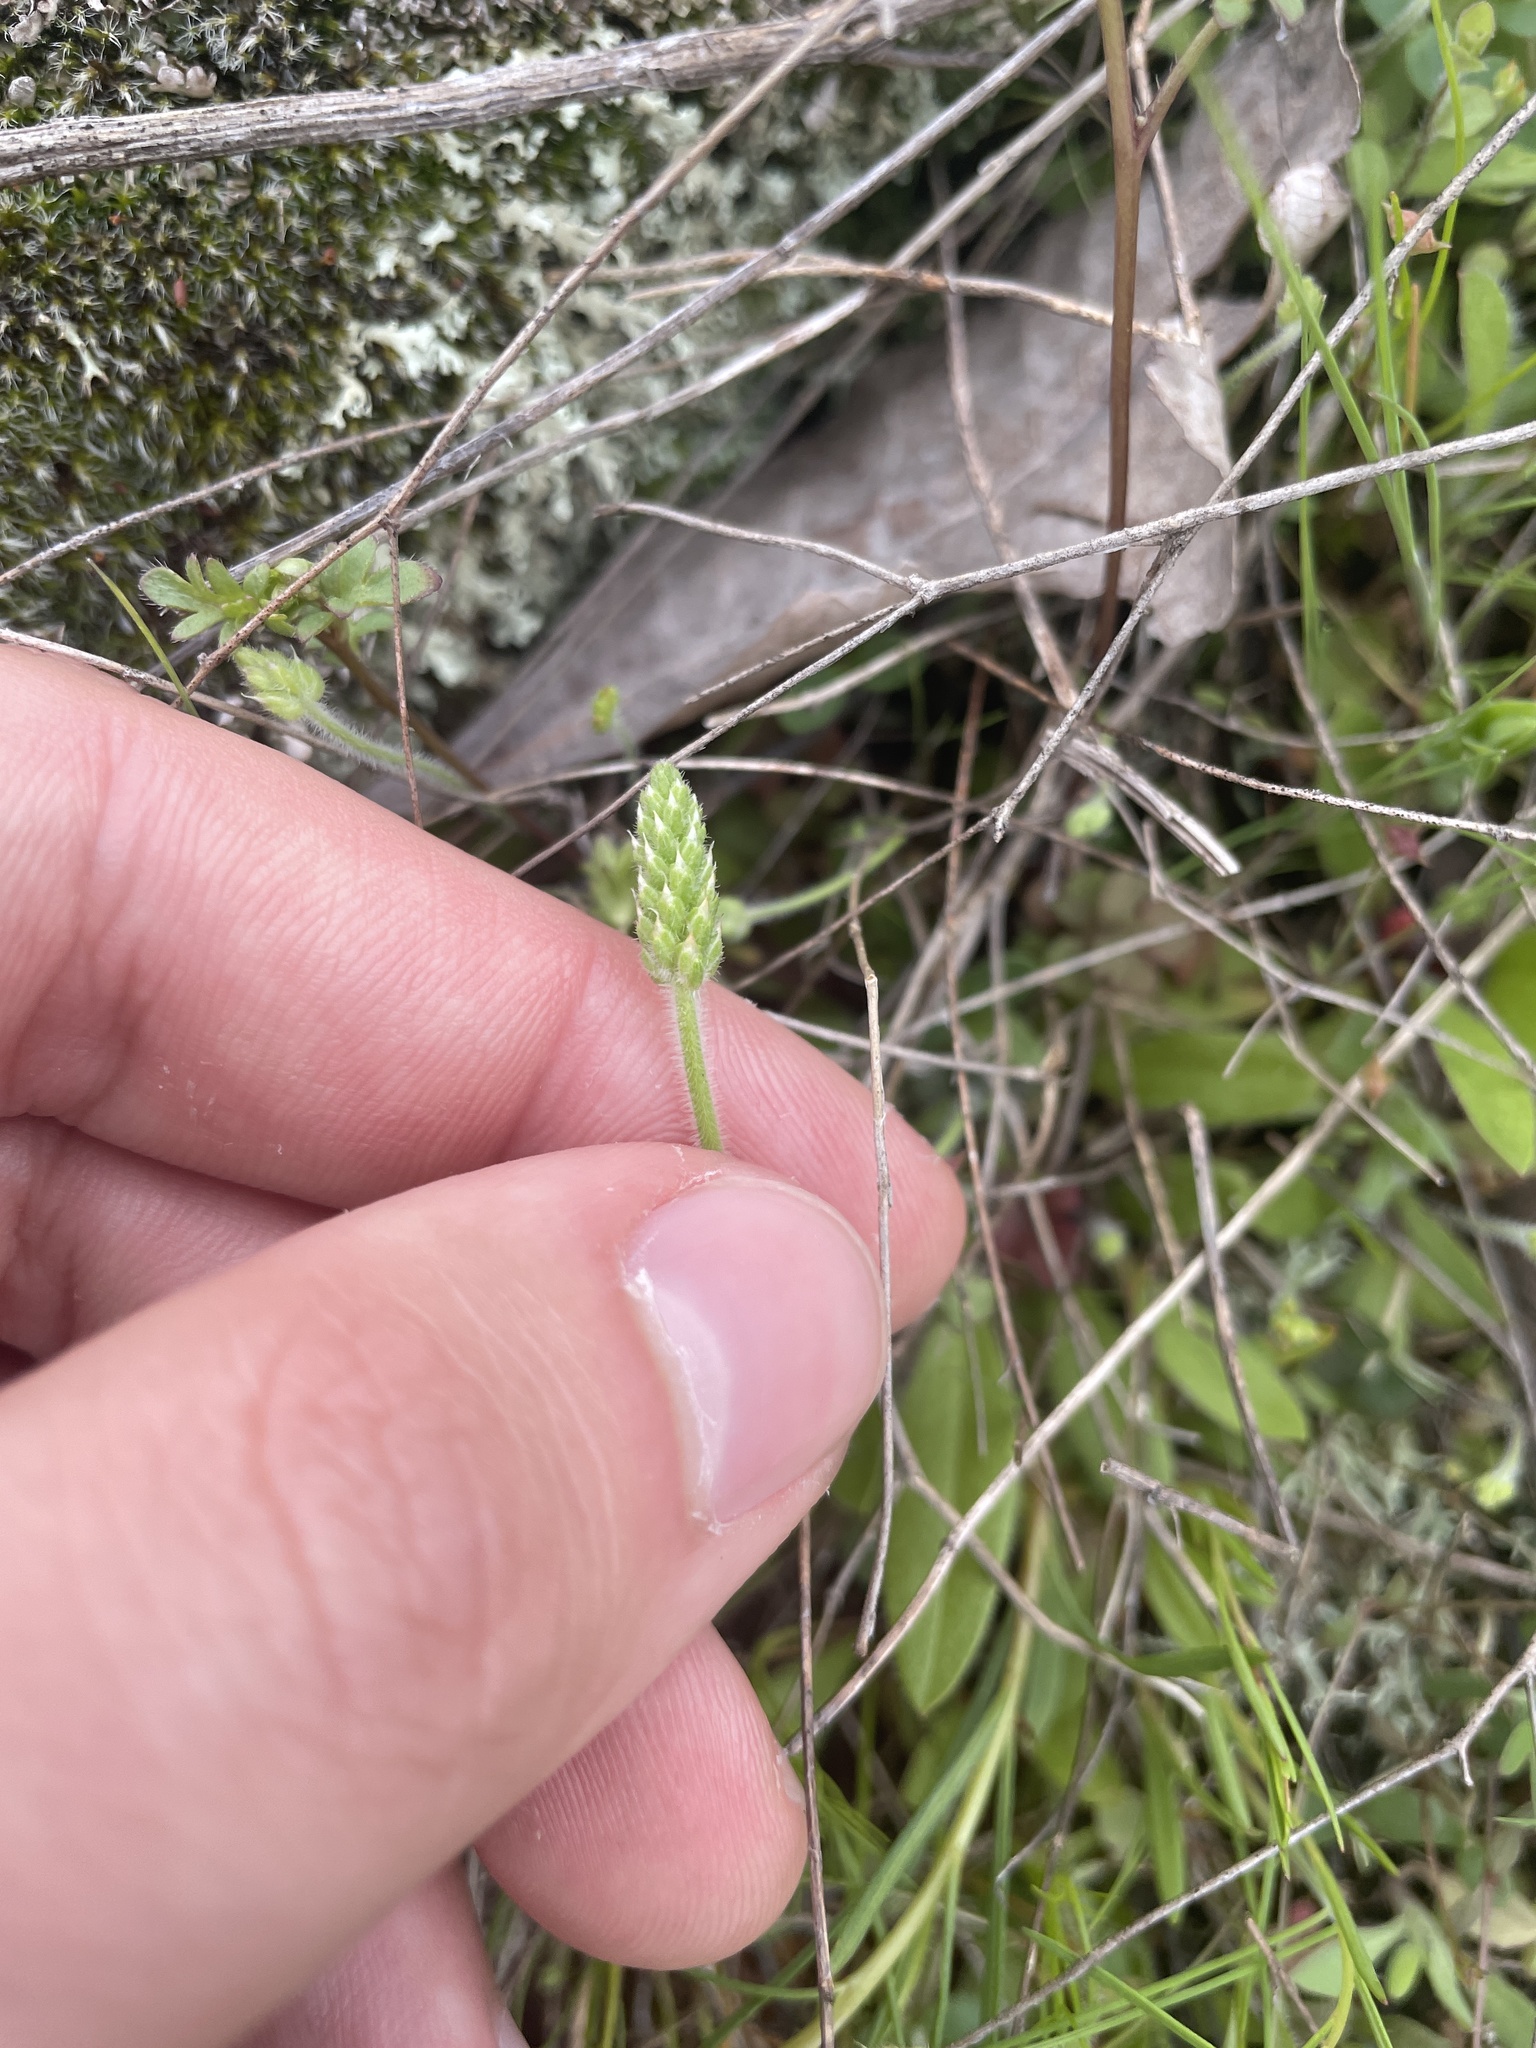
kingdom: Plantae
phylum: Tracheophyta
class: Magnoliopsida
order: Lamiales
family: Plantaginaceae
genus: Plantago
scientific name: Plantago virginica
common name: Hoary plantain
